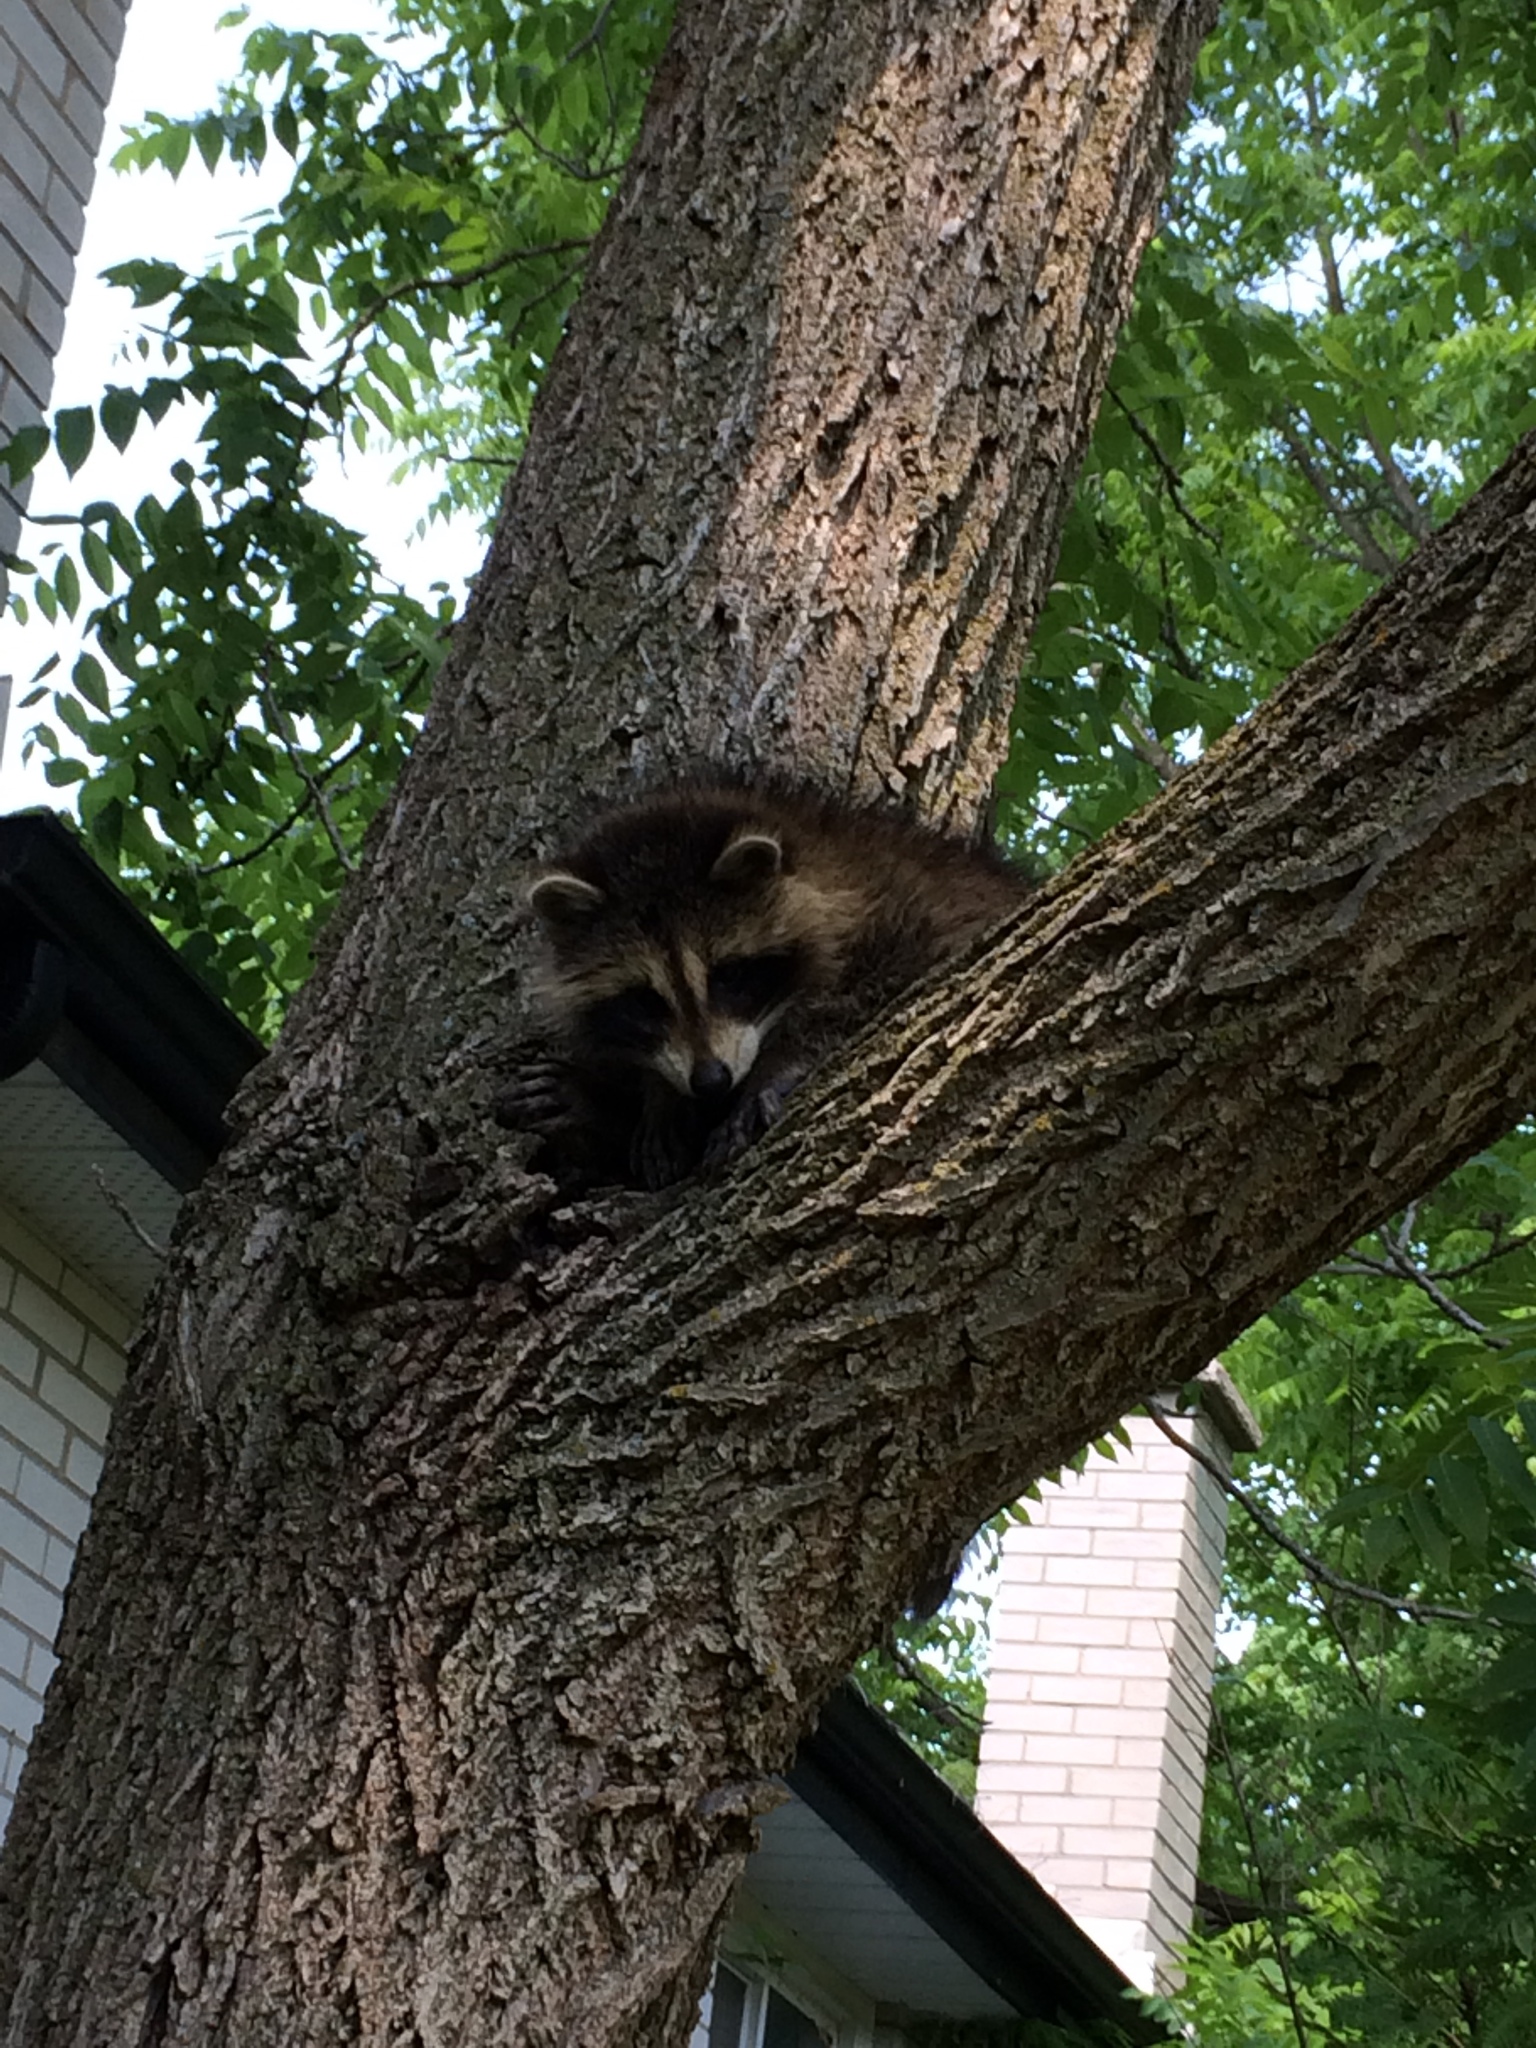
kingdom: Animalia
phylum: Chordata
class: Mammalia
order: Carnivora
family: Procyonidae
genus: Procyon
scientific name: Procyon lotor
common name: Raccoon
